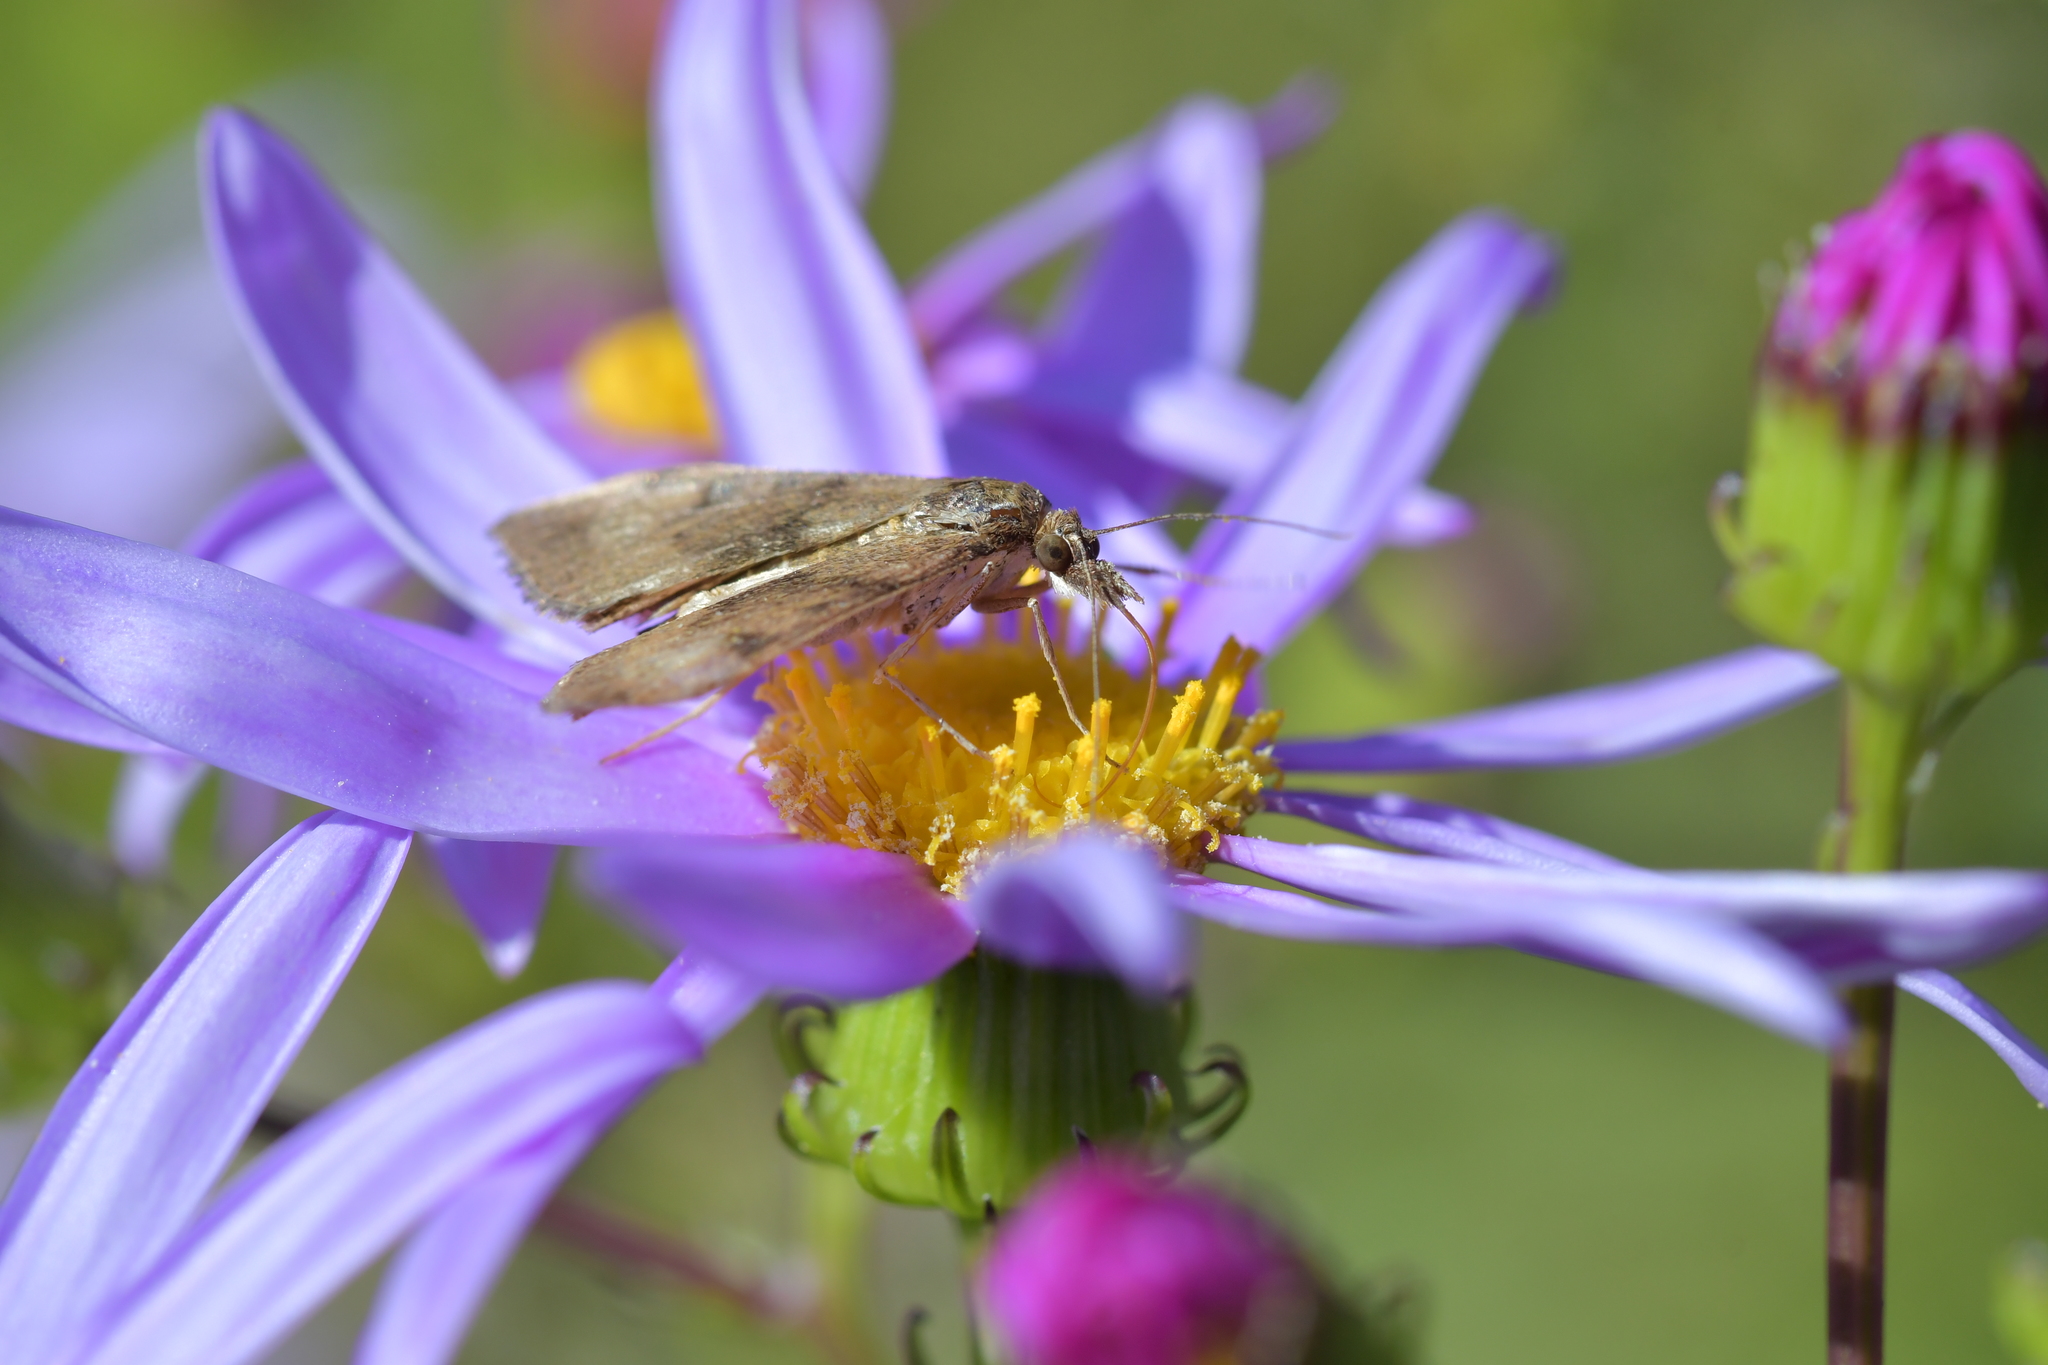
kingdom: Animalia
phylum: Arthropoda
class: Insecta
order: Lepidoptera
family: Crambidae
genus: Uresiphita
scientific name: Uresiphita
